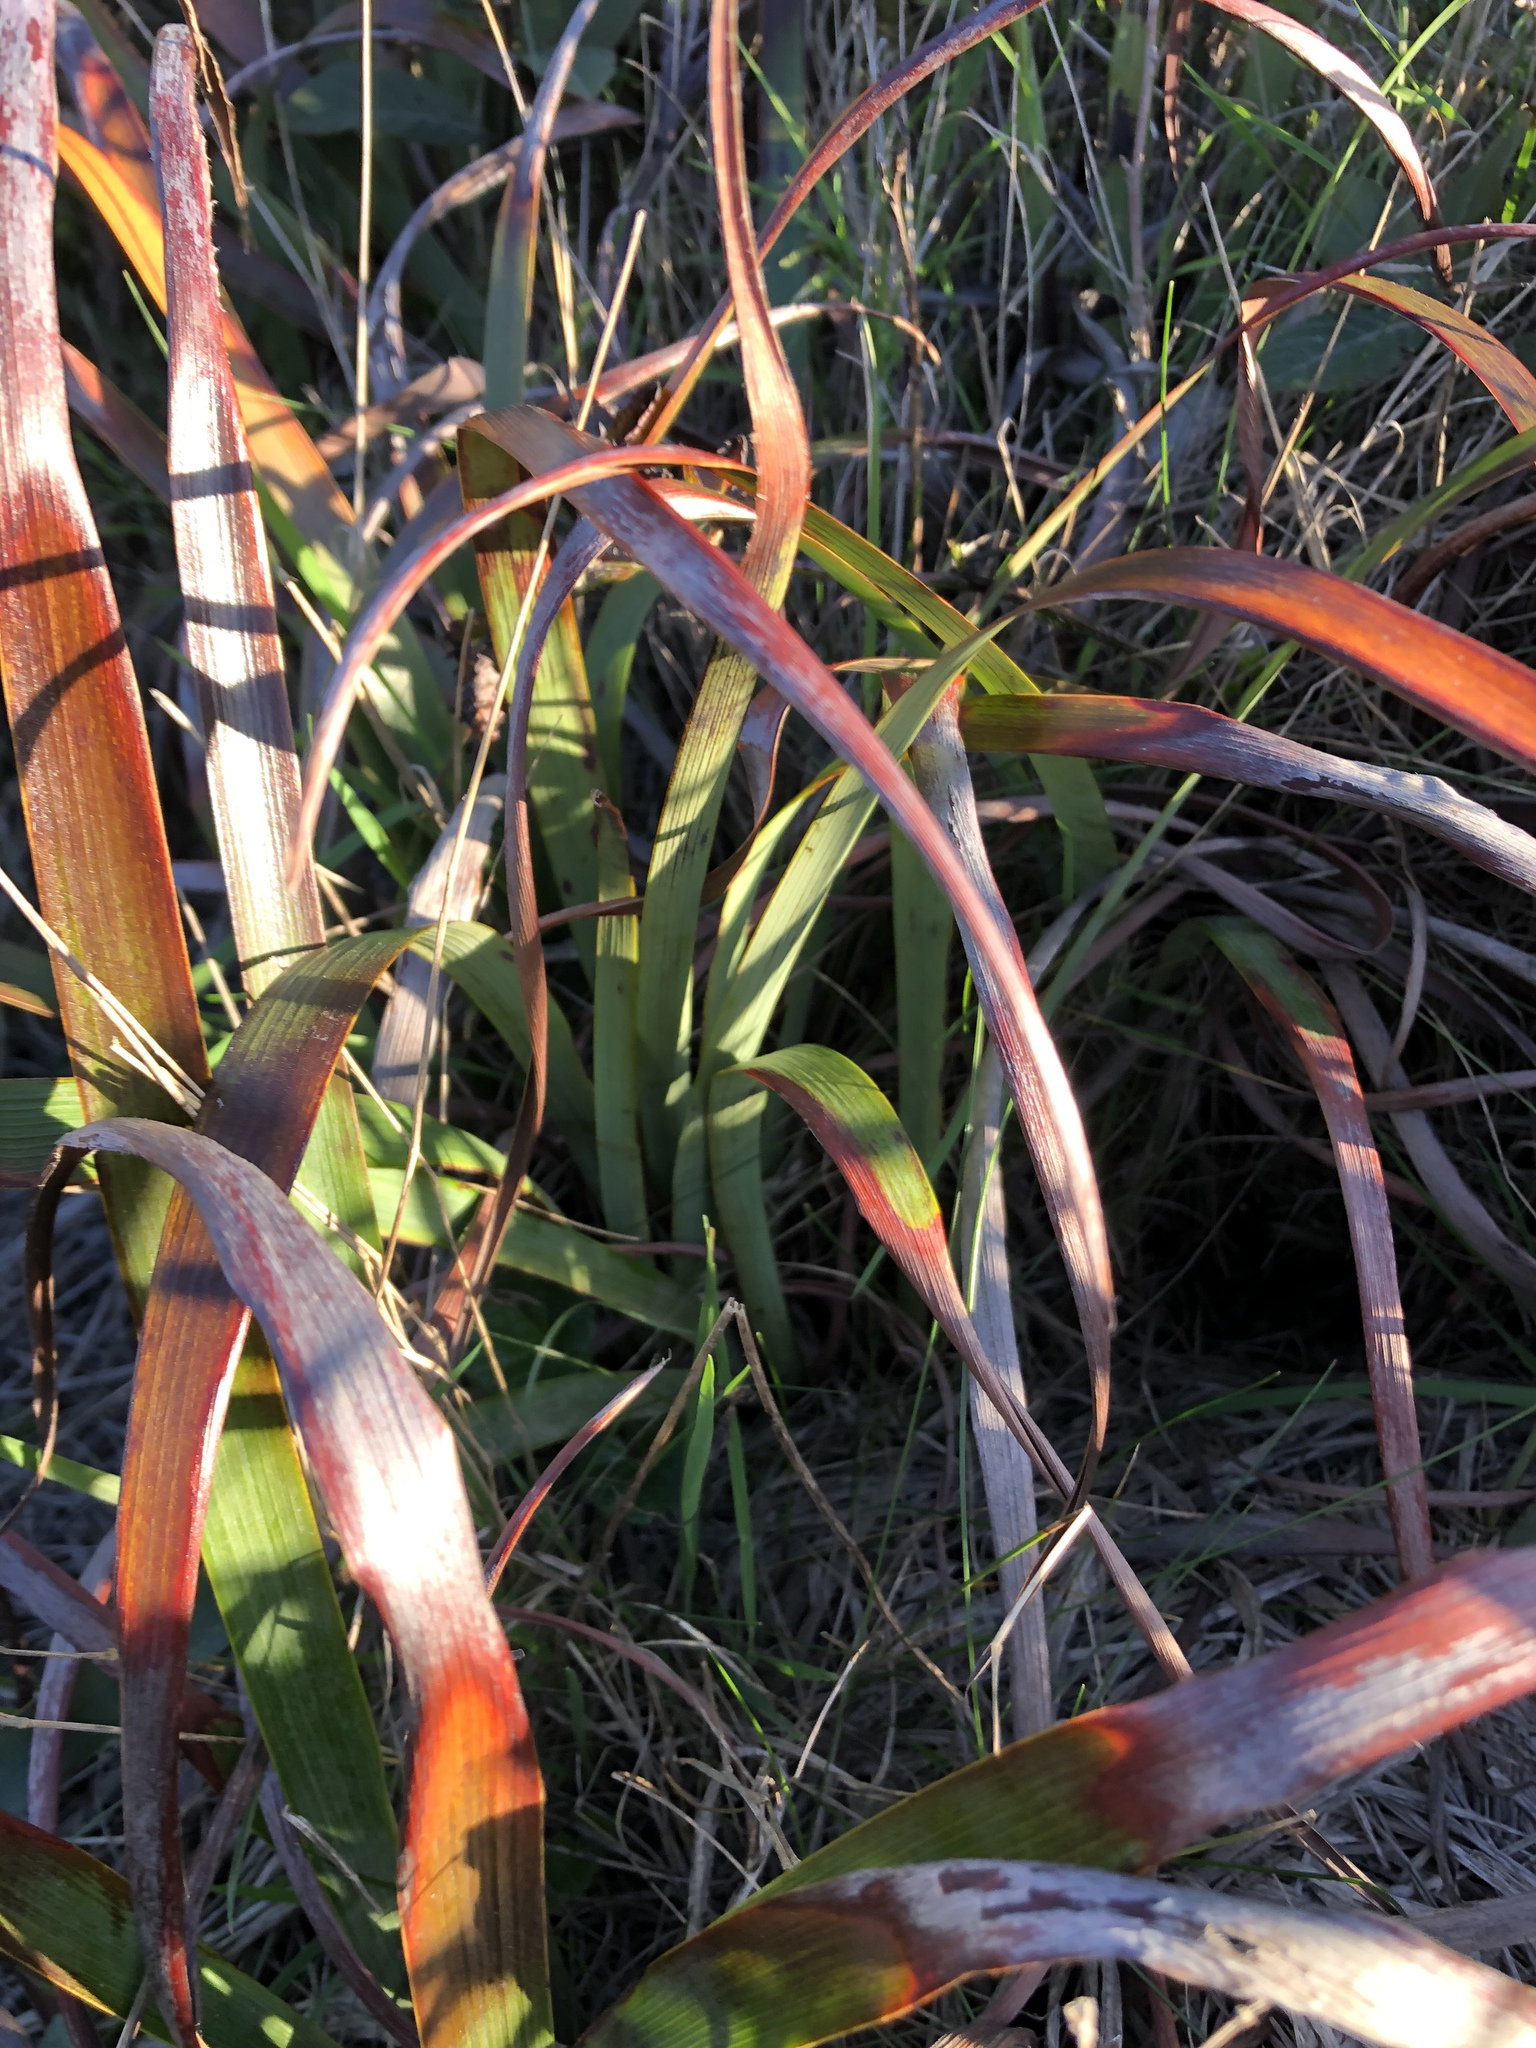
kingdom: Plantae
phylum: Tracheophyta
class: Liliopsida
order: Asparagales
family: Iridaceae
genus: Iris
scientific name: Iris douglasiana
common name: Marin iris
